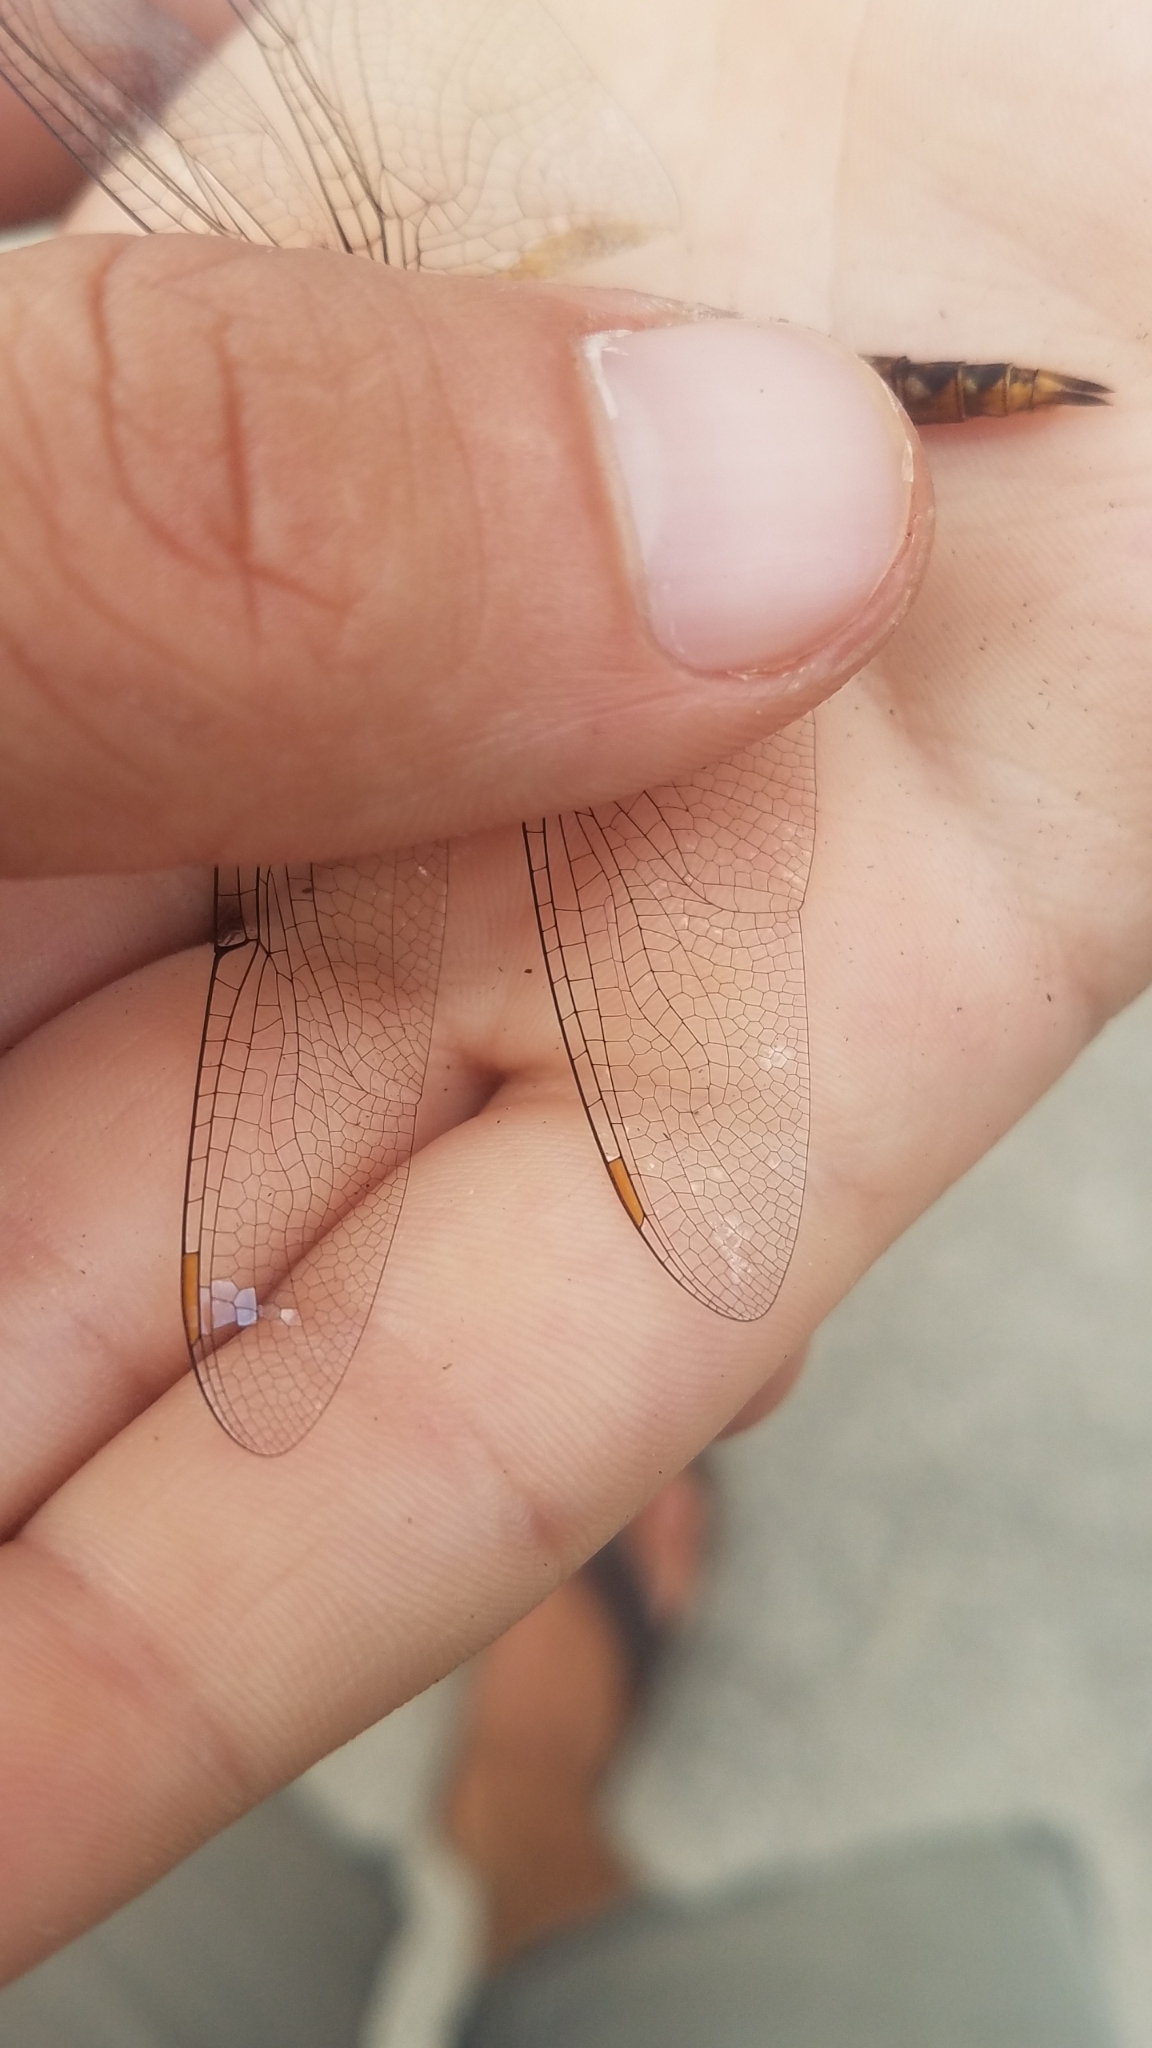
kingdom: Animalia
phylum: Arthropoda
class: Insecta
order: Odonata
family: Libellulidae
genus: Pantala
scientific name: Pantala hymenaea
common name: Spot-winged glider
